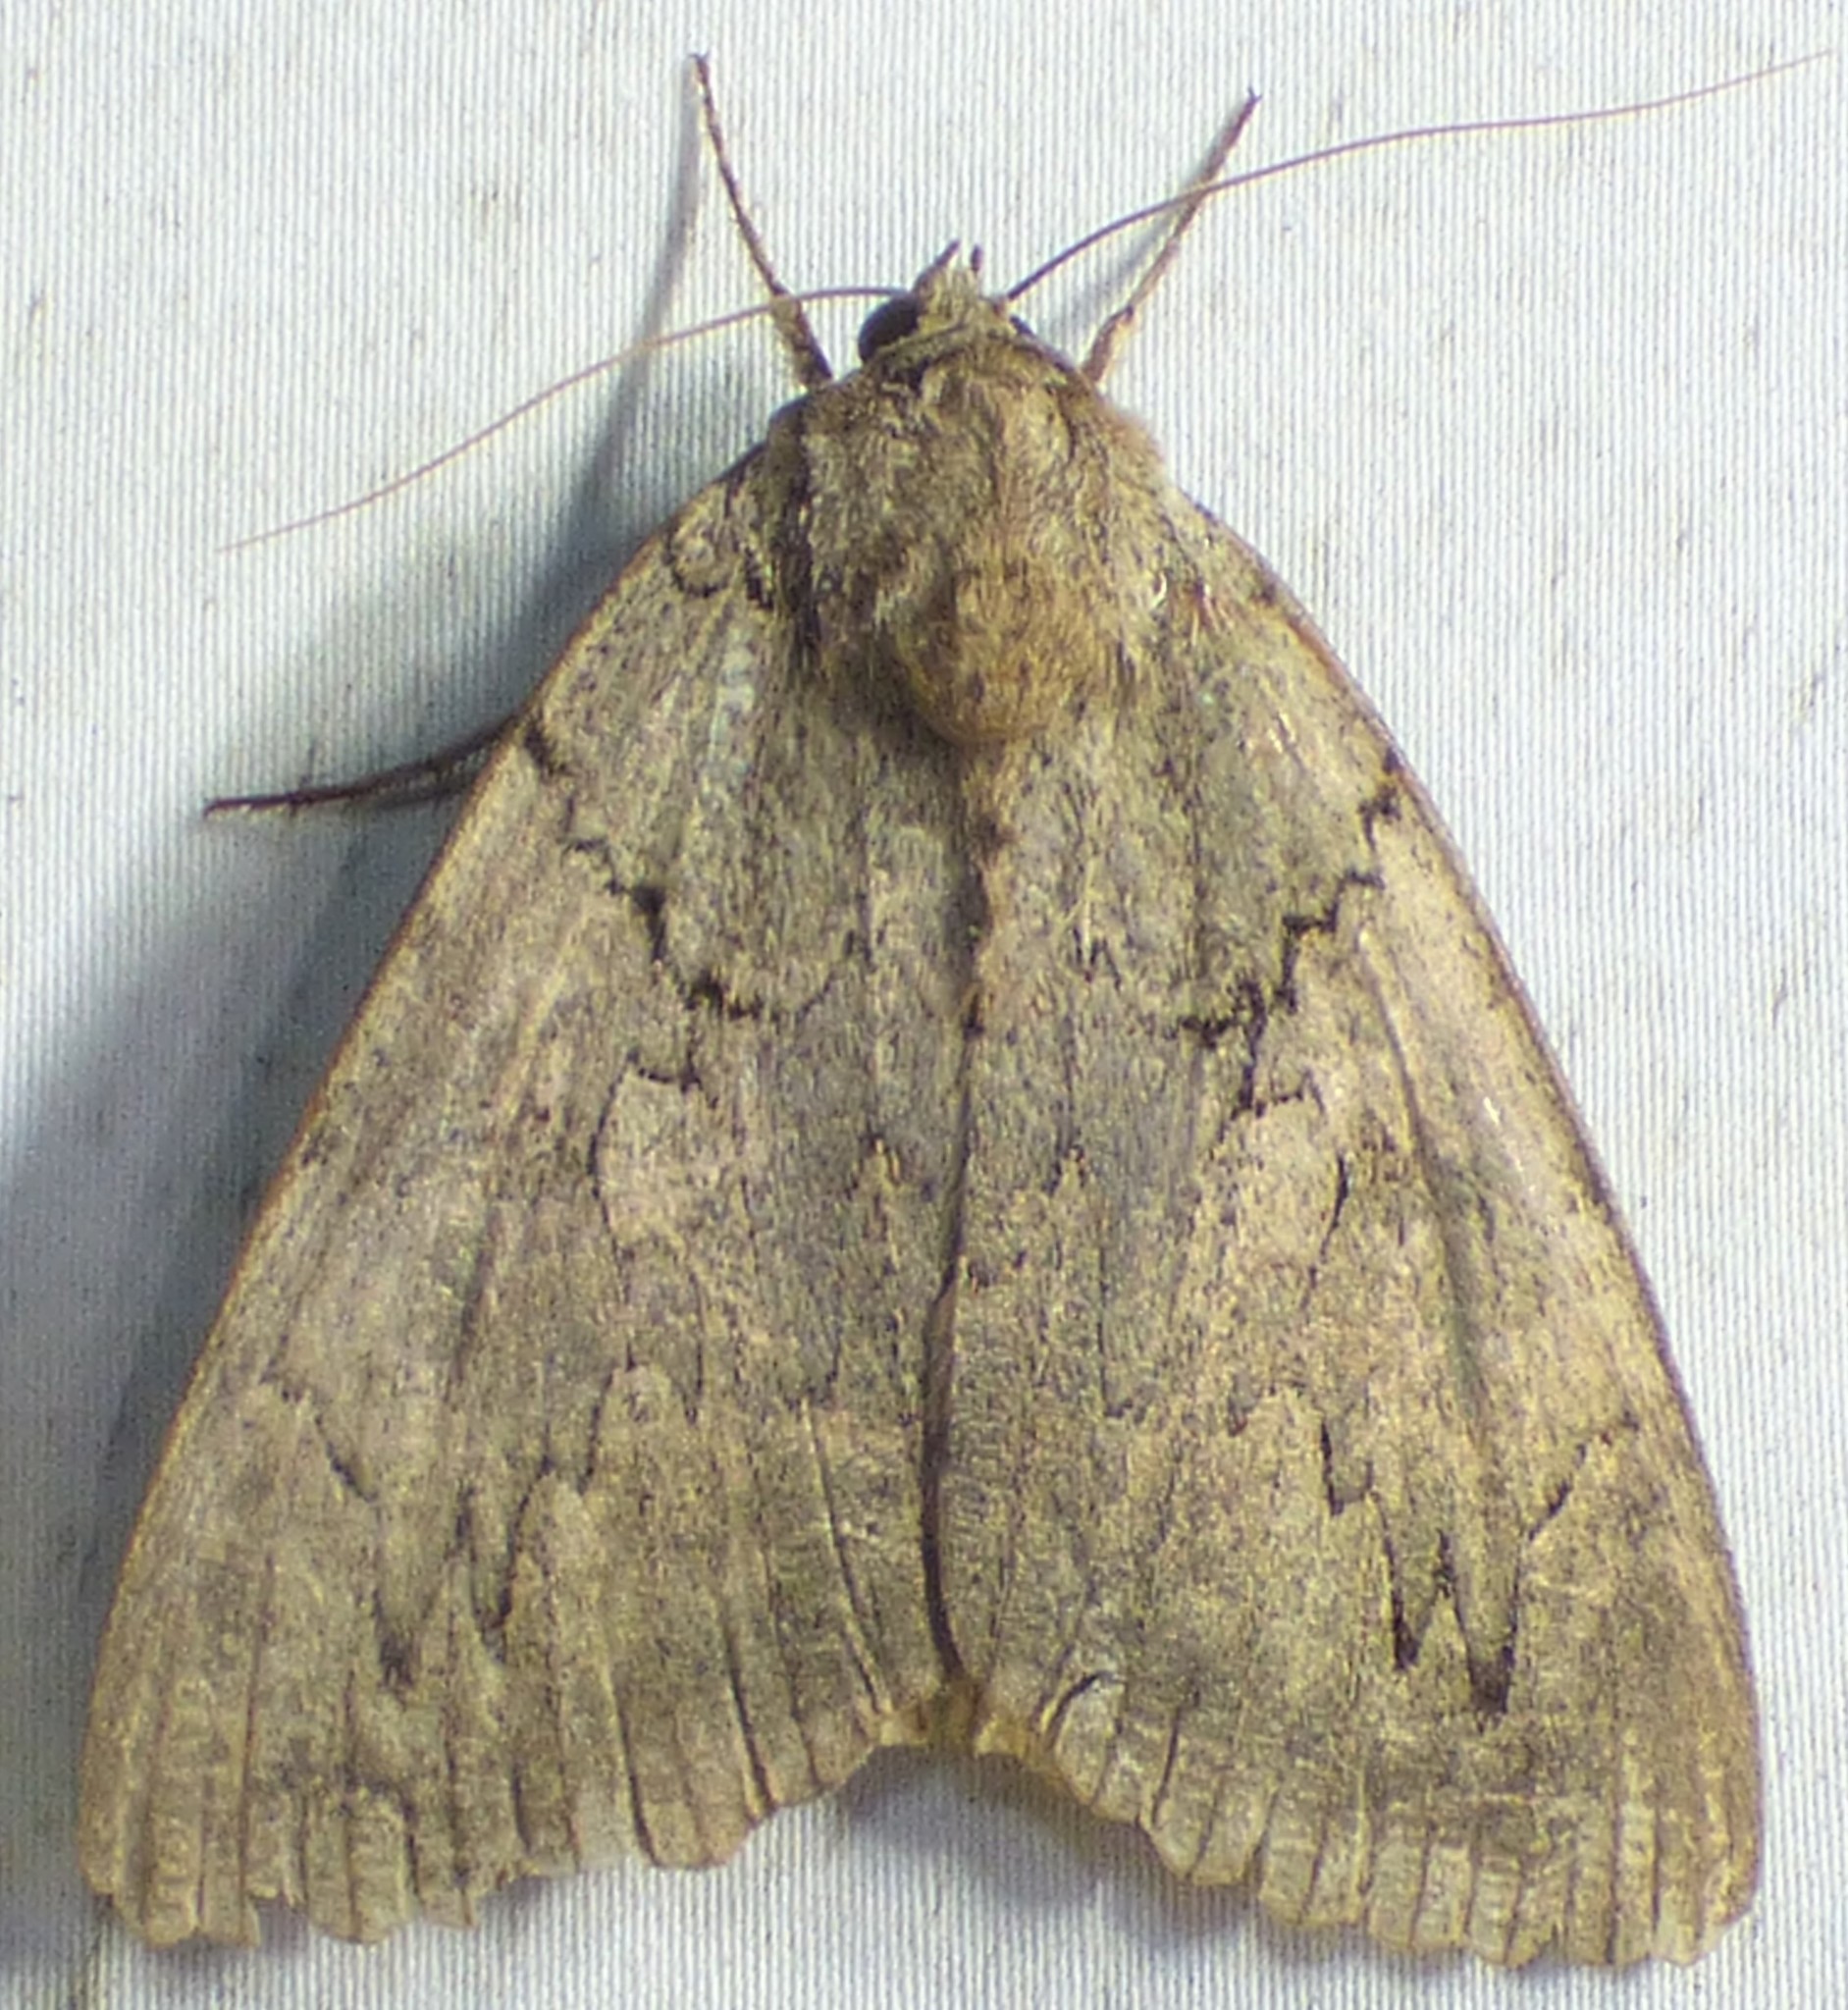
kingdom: Animalia
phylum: Arthropoda
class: Insecta
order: Lepidoptera
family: Erebidae
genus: Catocala
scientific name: Catocala amatrix
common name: Sweetheart underwing
